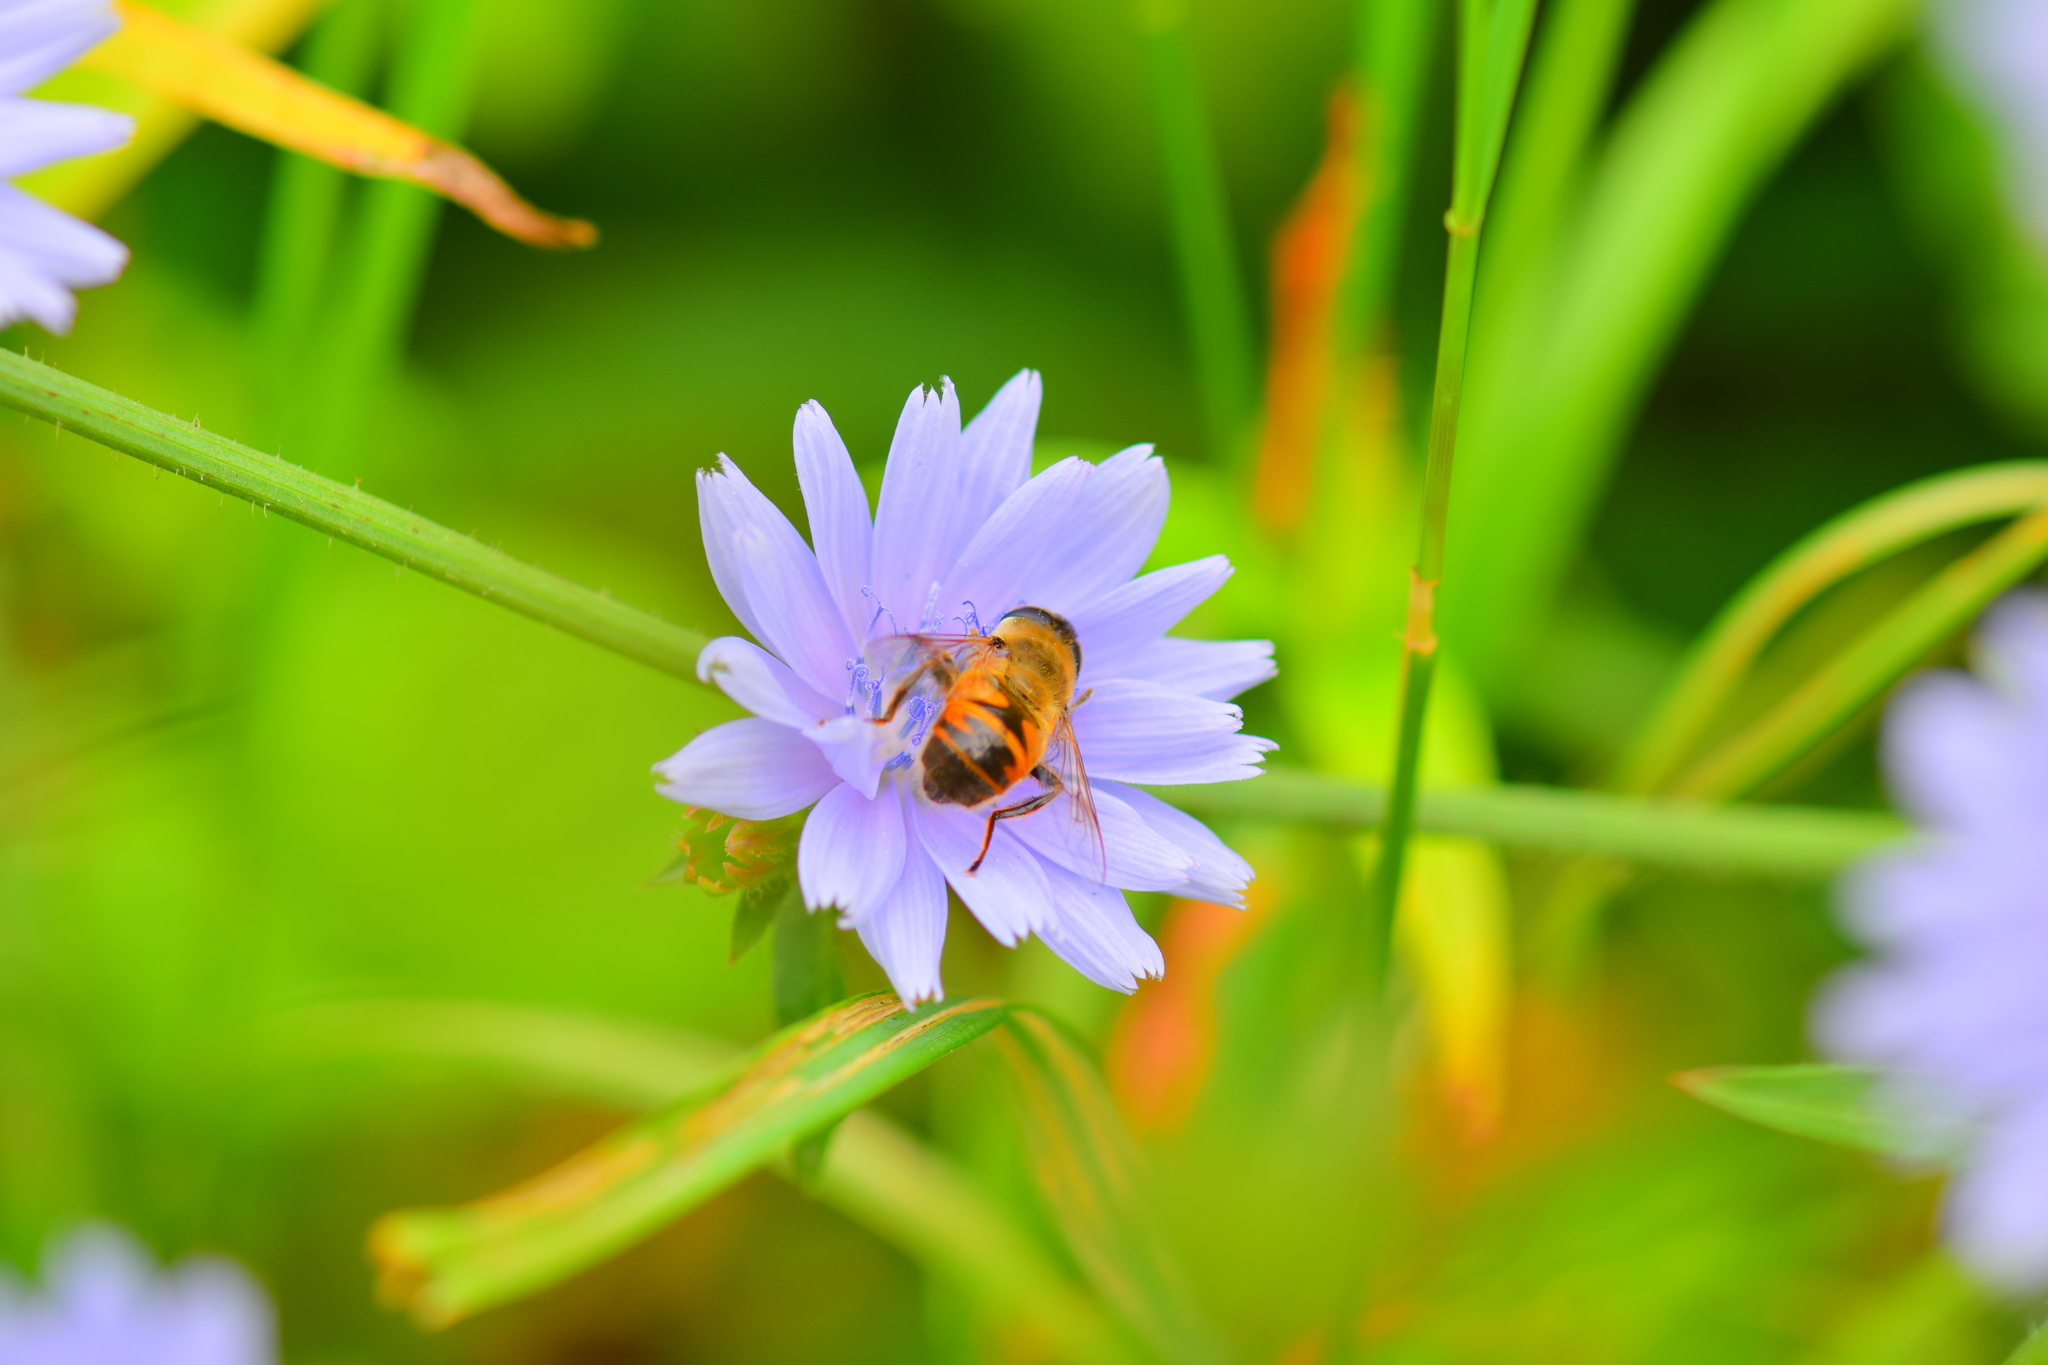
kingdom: Animalia
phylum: Arthropoda
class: Insecta
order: Diptera
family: Syrphidae
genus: Eristalis
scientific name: Eristalis tenax
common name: Drone fly
